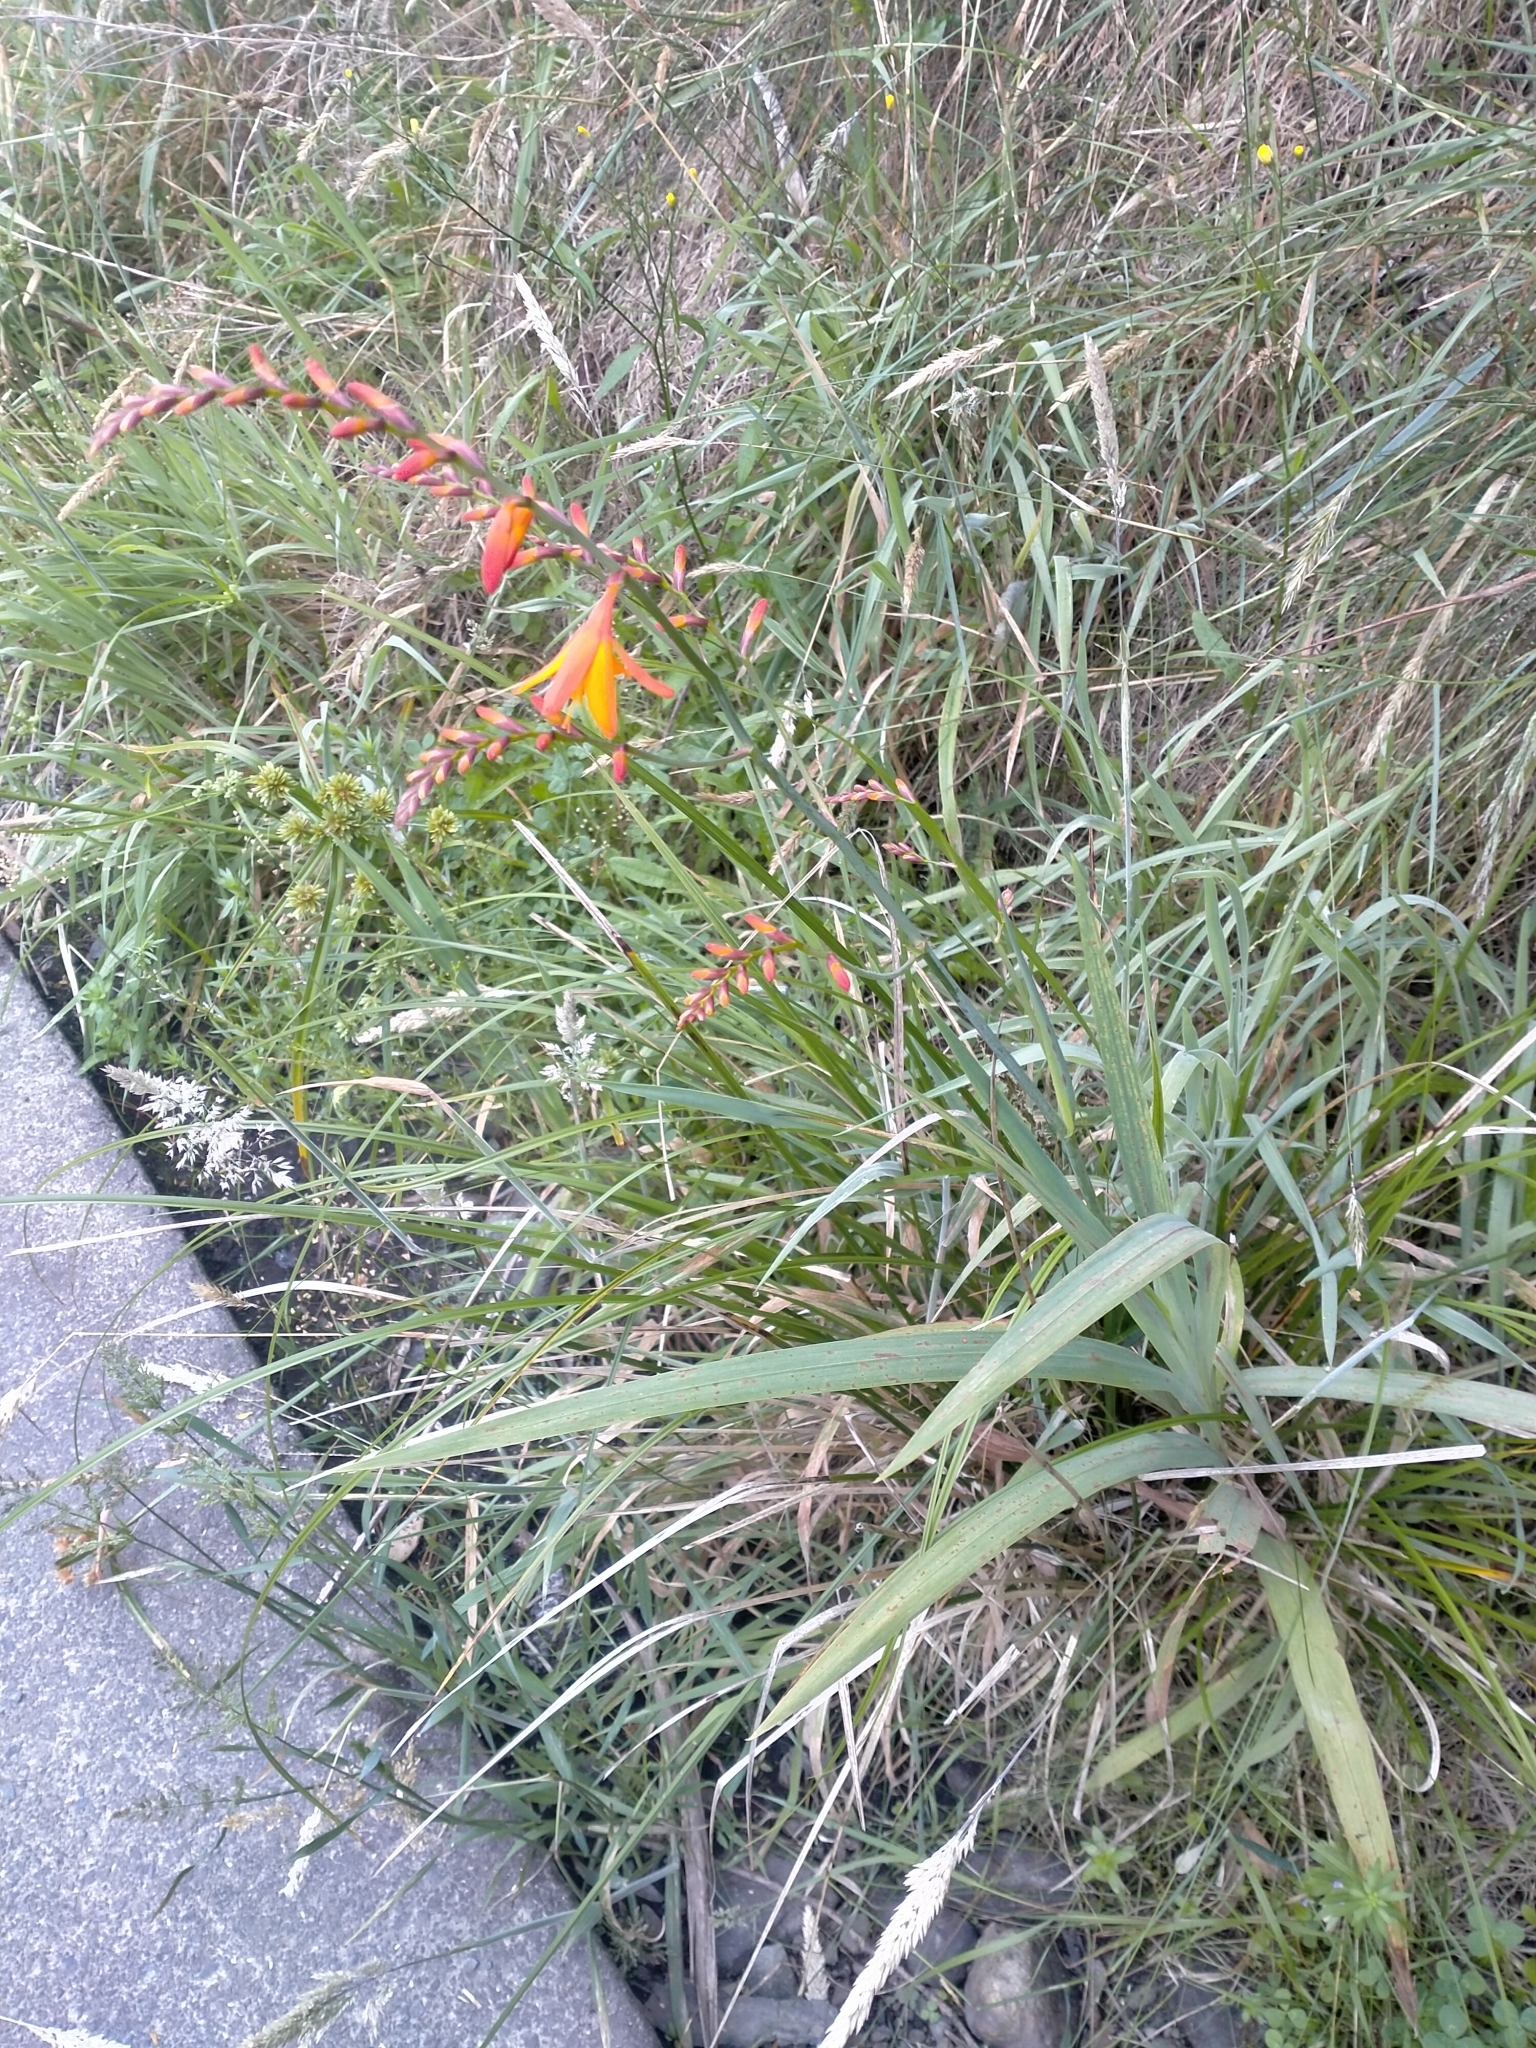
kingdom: Plantae
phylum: Tracheophyta
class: Liliopsida
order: Asparagales
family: Iridaceae
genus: Crocosmia
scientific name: Crocosmia crocosmiiflora
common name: Montbretia
